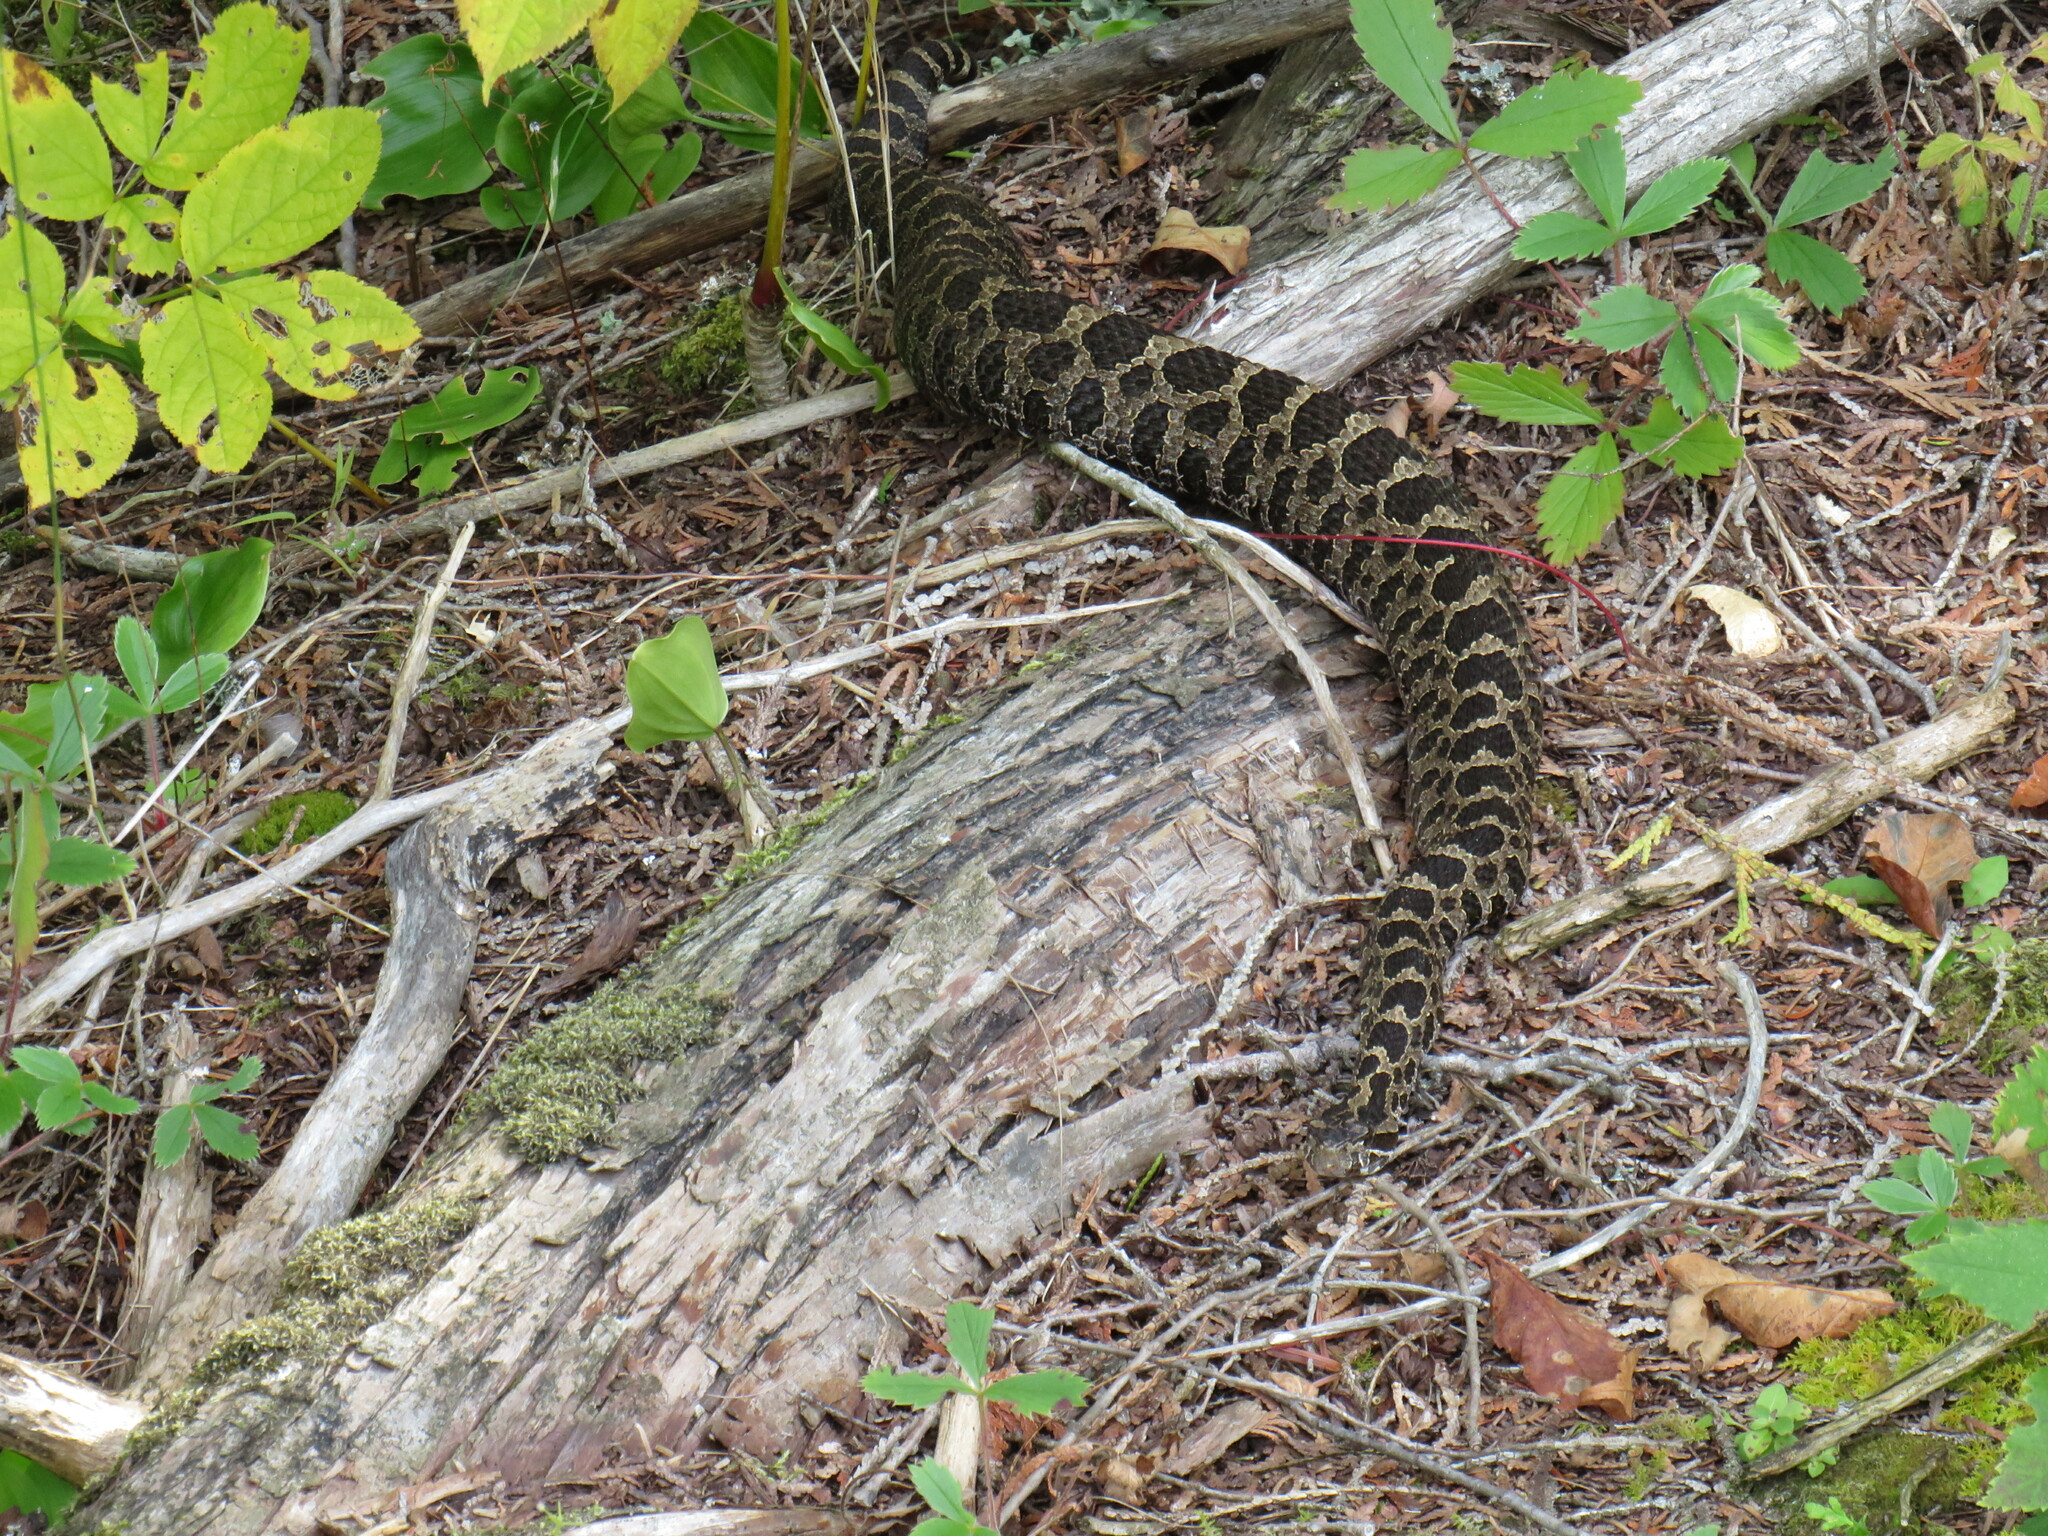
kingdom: Animalia
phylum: Chordata
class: Squamata
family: Viperidae
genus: Sistrurus
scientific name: Sistrurus catenatus
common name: Massasauga
